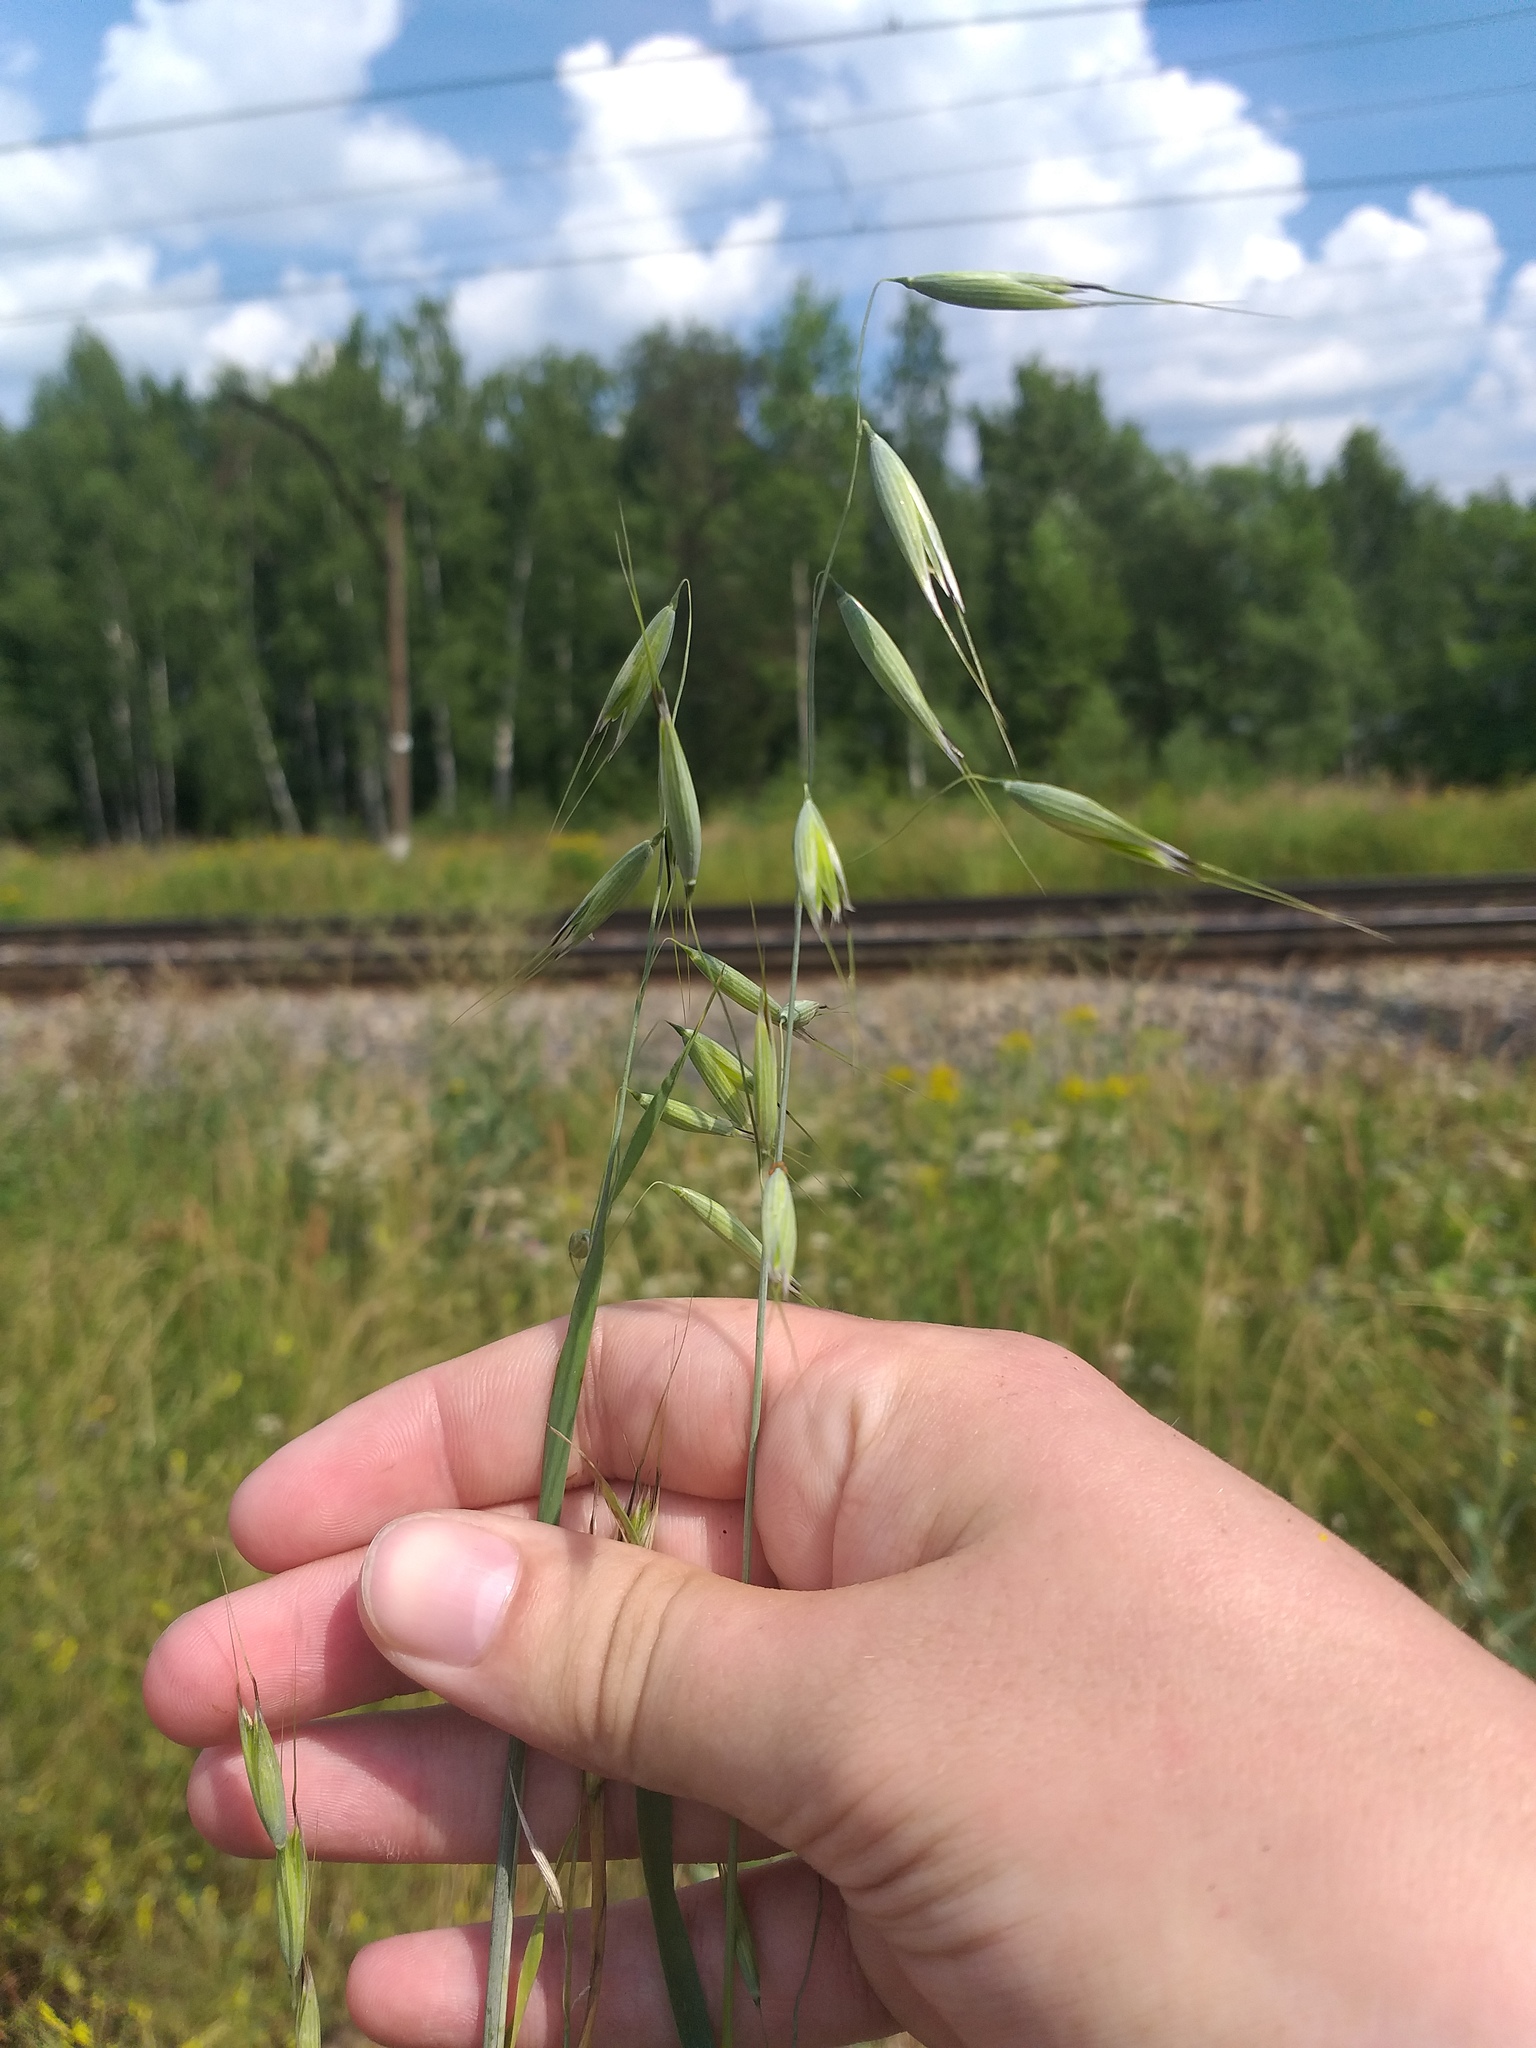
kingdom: Plantae
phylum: Tracheophyta
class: Liliopsida
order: Poales
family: Poaceae
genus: Avena
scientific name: Avena fatua
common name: Wild oat
